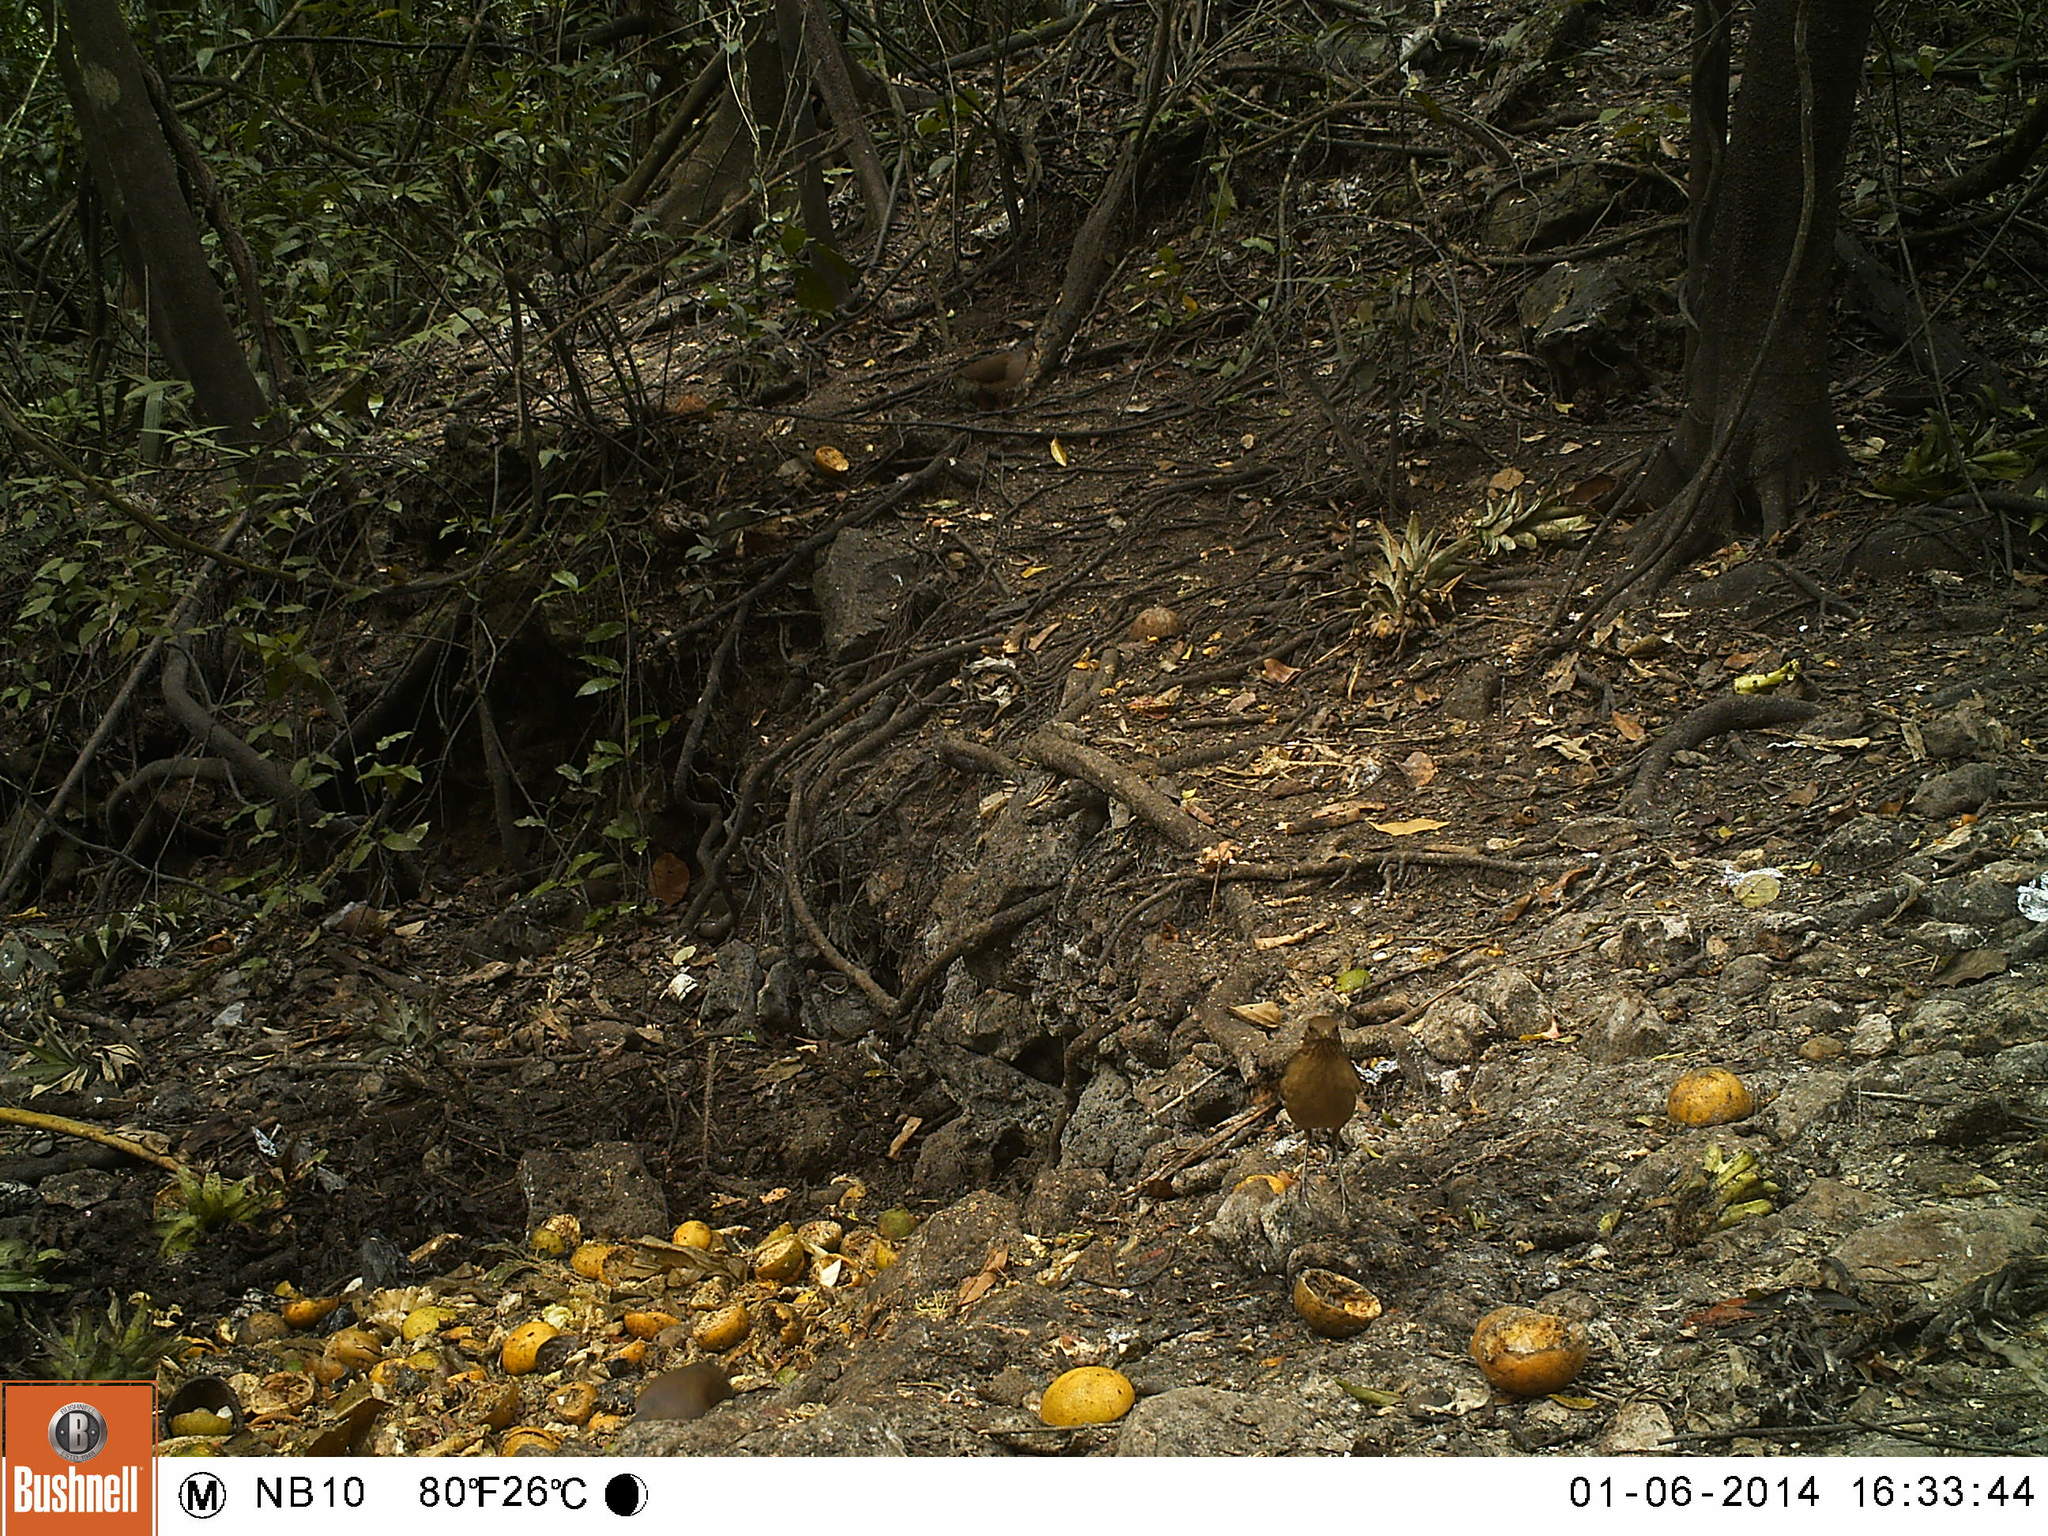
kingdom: Animalia
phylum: Chordata
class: Aves
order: Passeriformes
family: Turdidae
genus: Turdus
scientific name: Turdus grayi
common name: Clay-colored thrush
